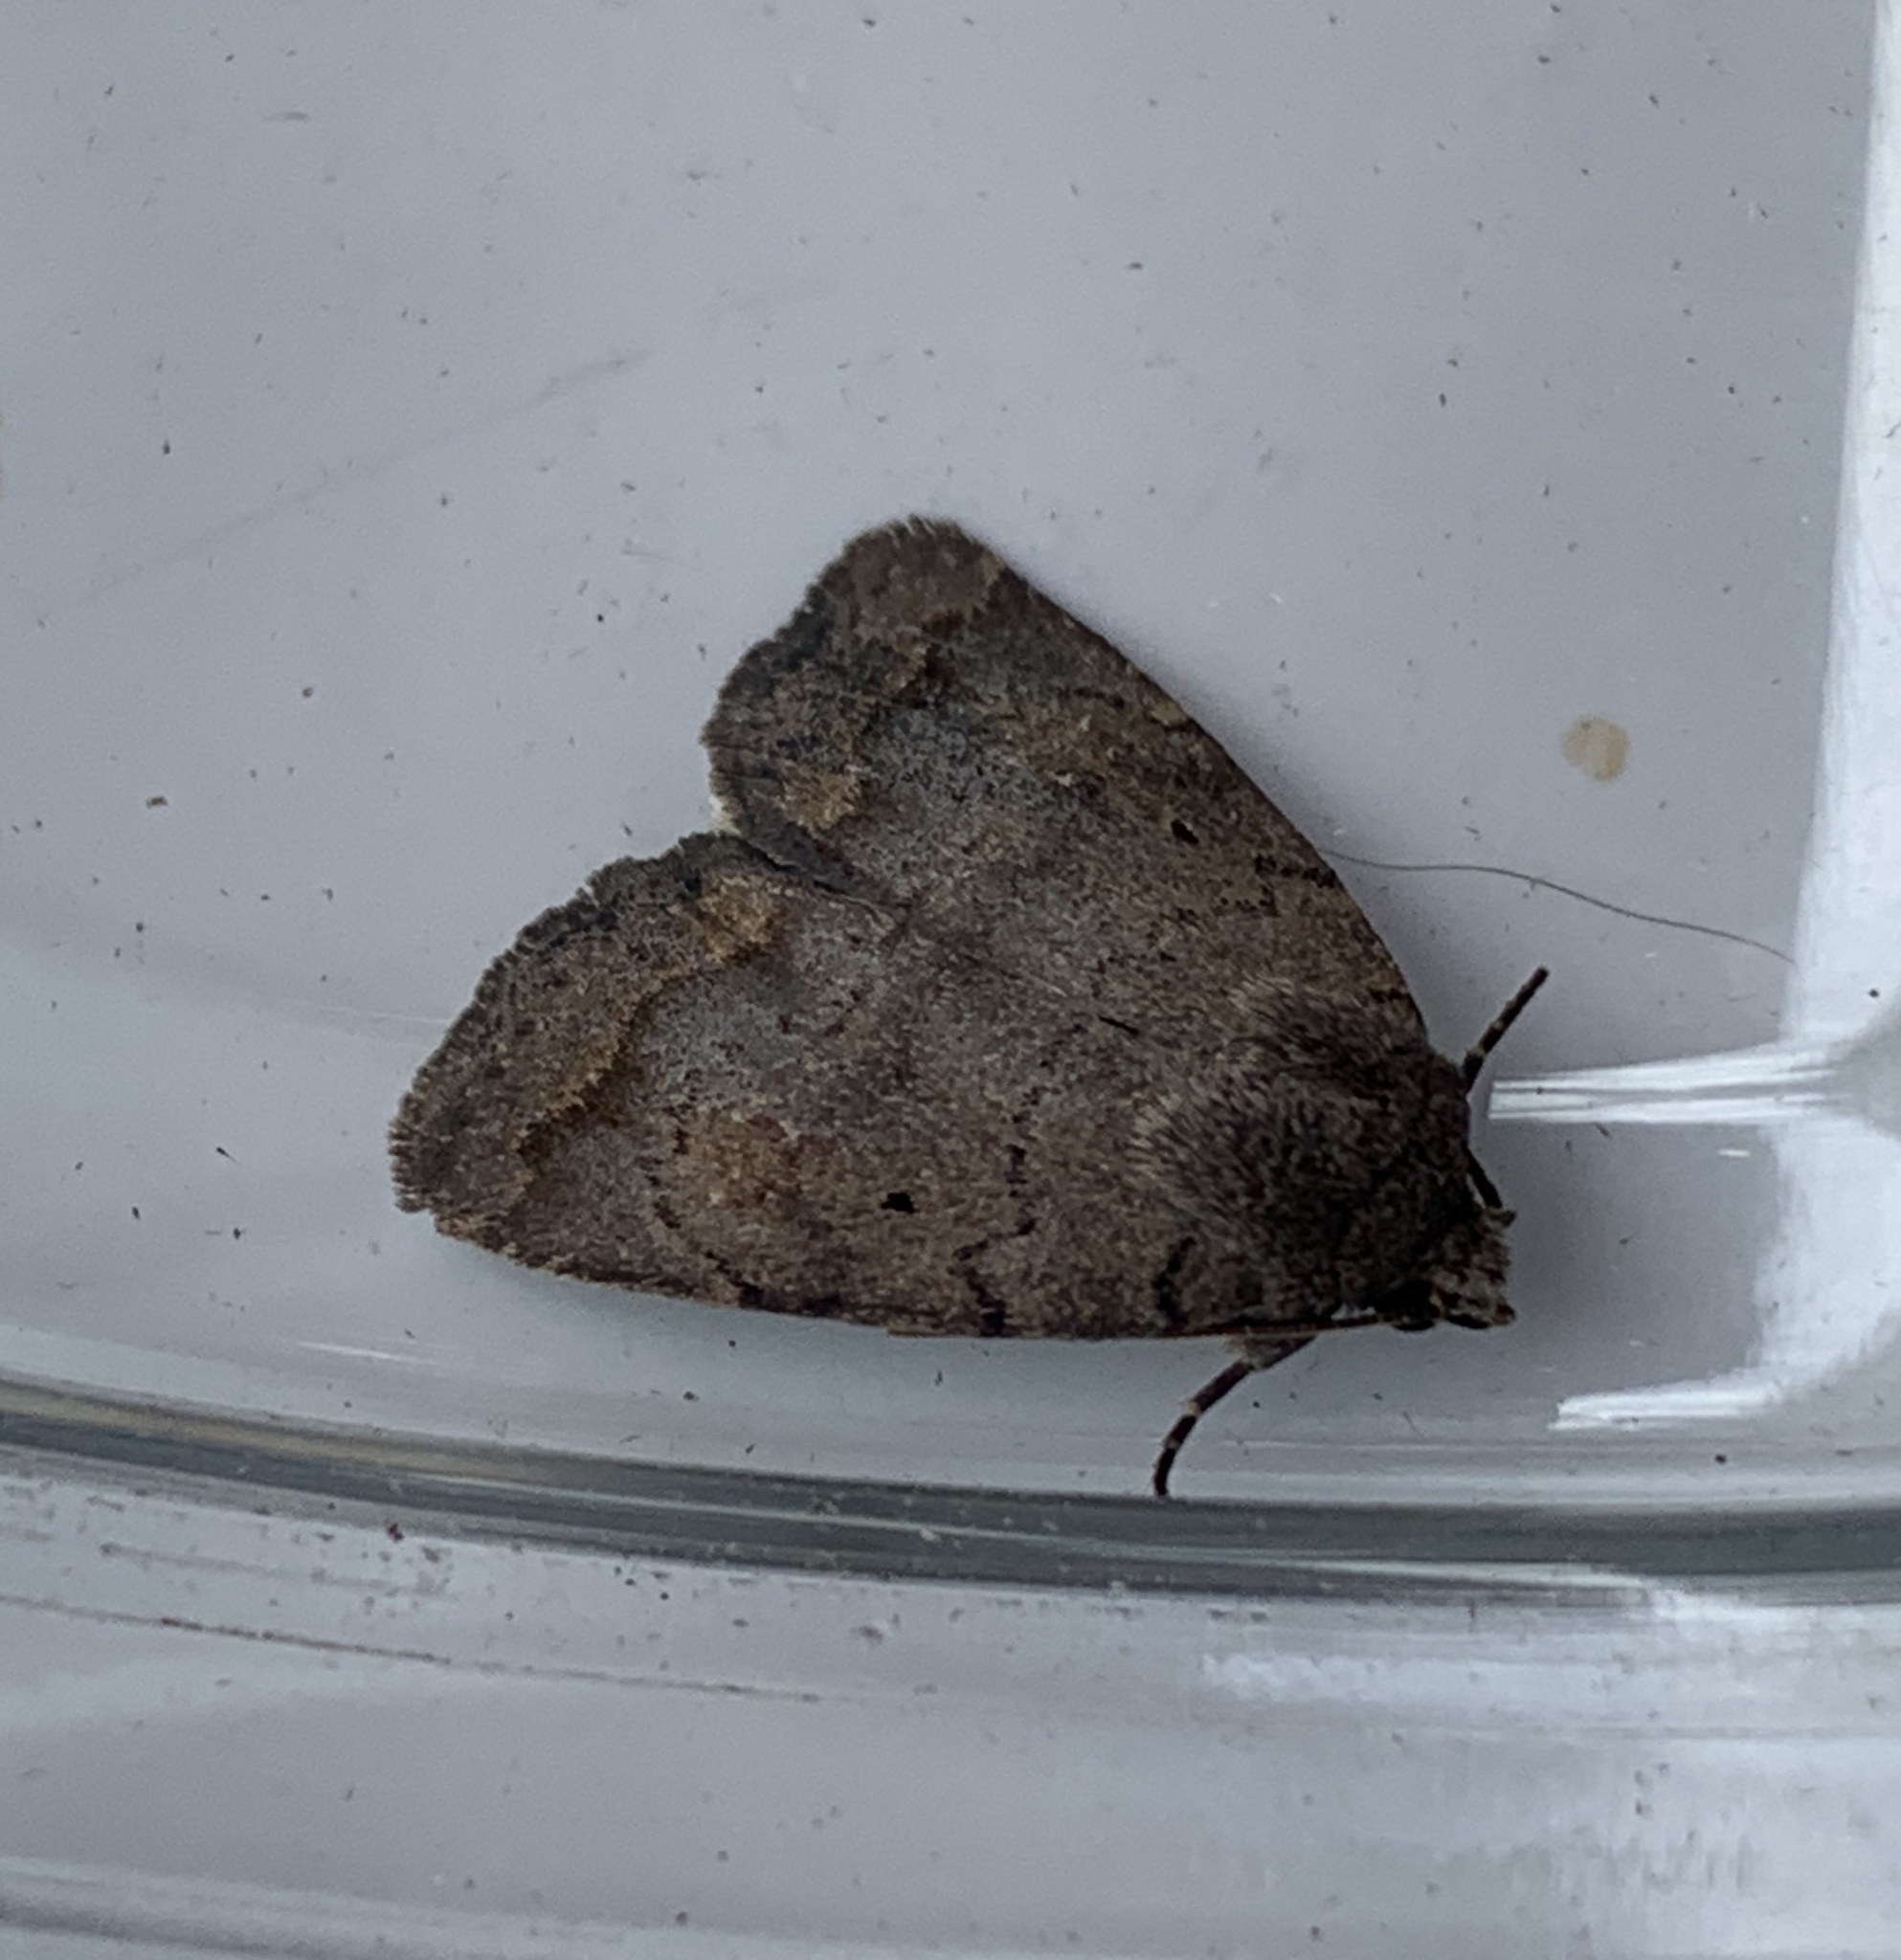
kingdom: Animalia
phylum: Arthropoda
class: Insecta
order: Lepidoptera
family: Noctuidae
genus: Athetis
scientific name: Athetis tarda
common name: Slowpoke moth
